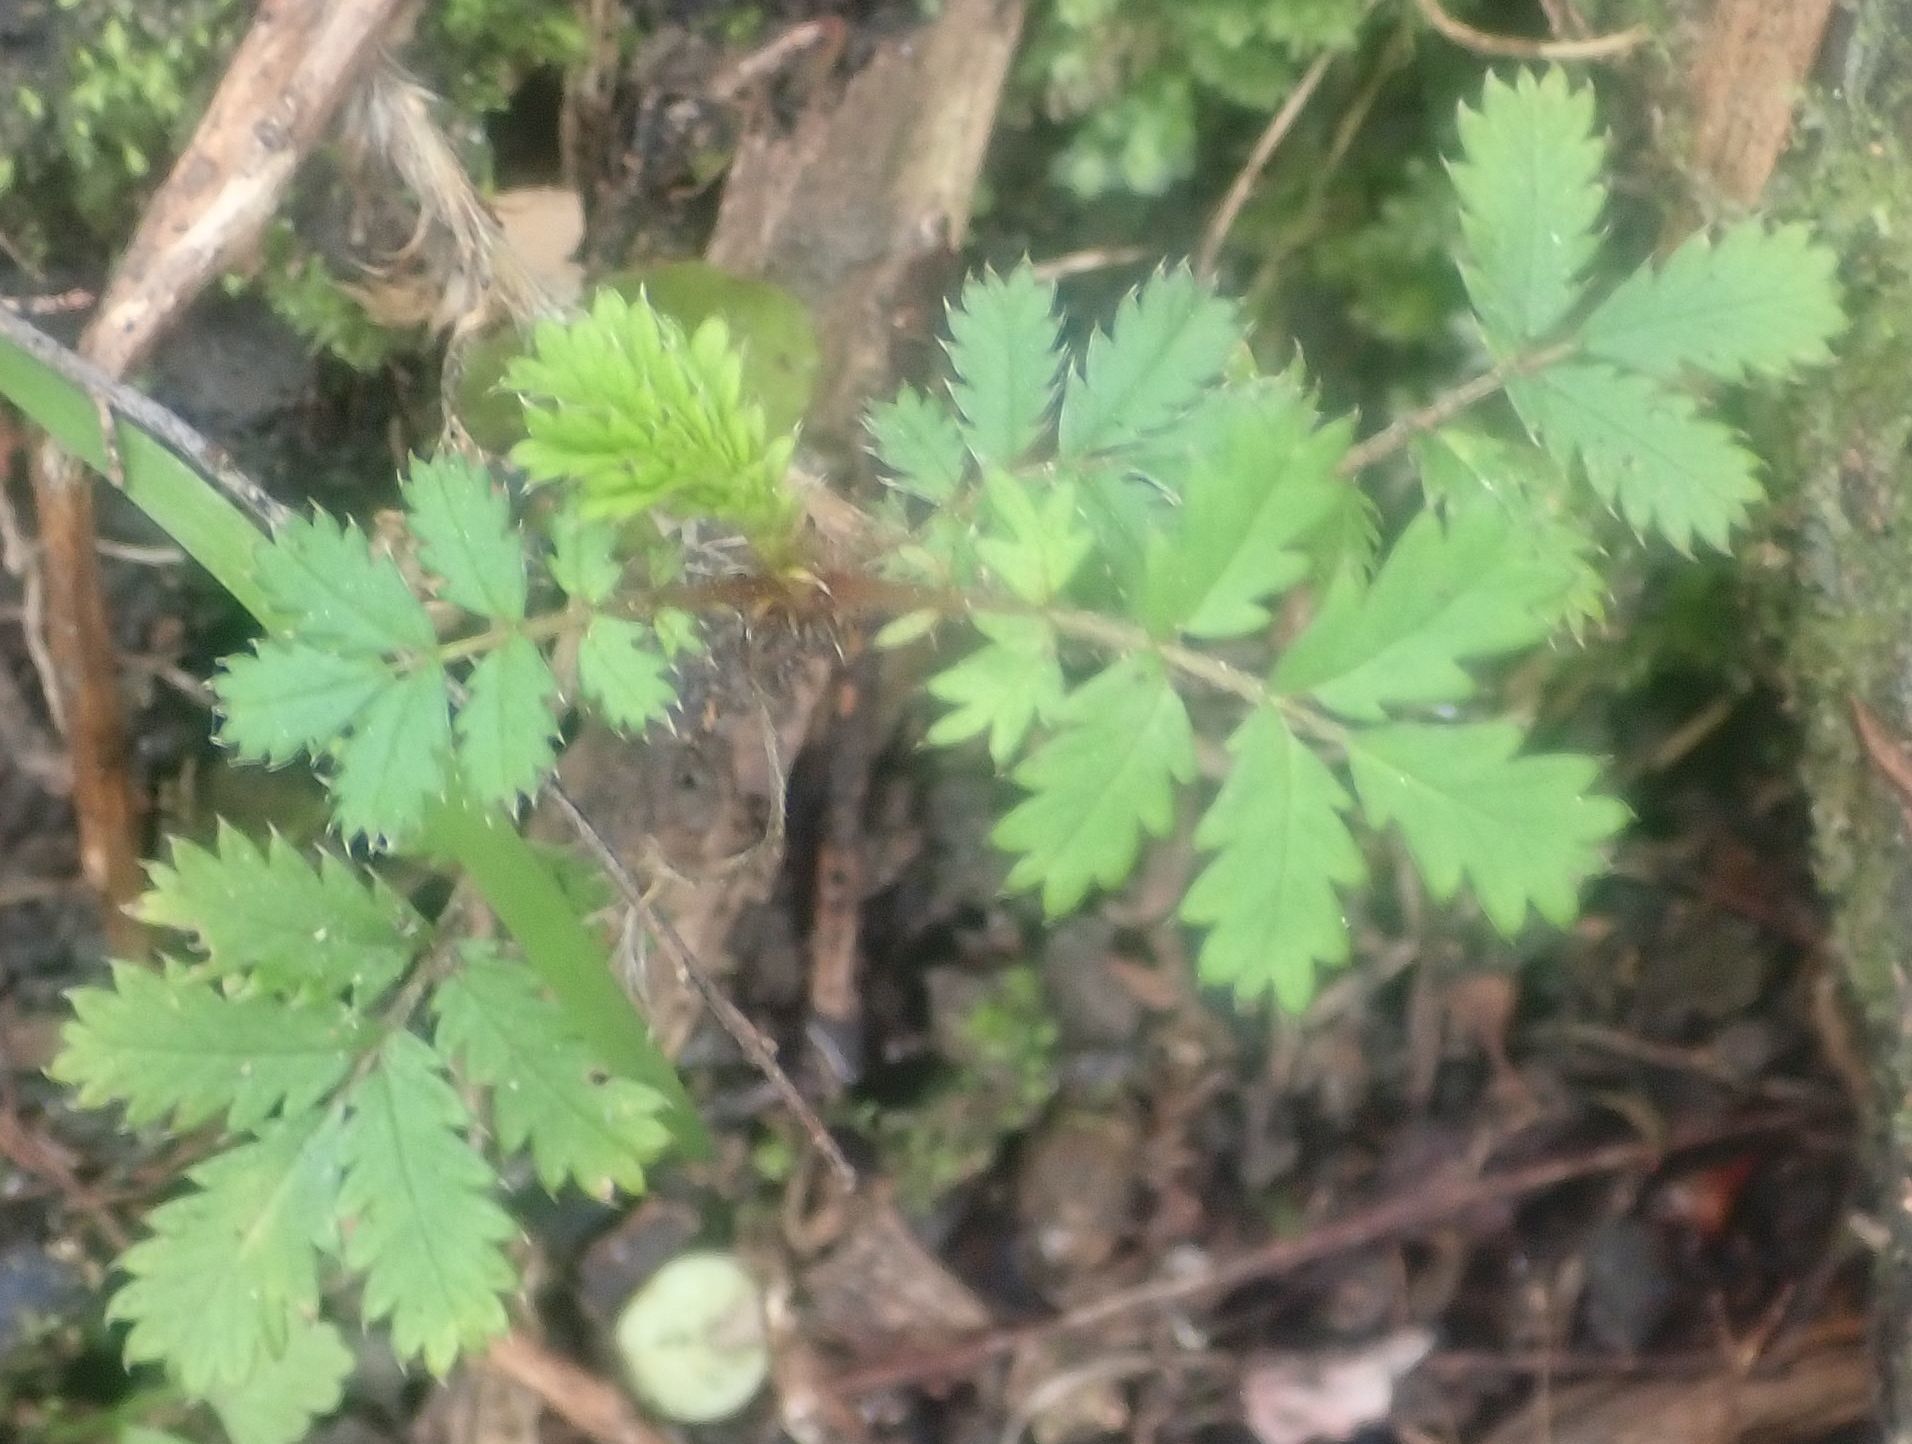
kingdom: Plantae
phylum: Tracheophyta
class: Magnoliopsida
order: Rosales
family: Rosaceae
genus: Acaena
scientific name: Acaena anserinifolia
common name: Bronze pirri-pirri-bur
